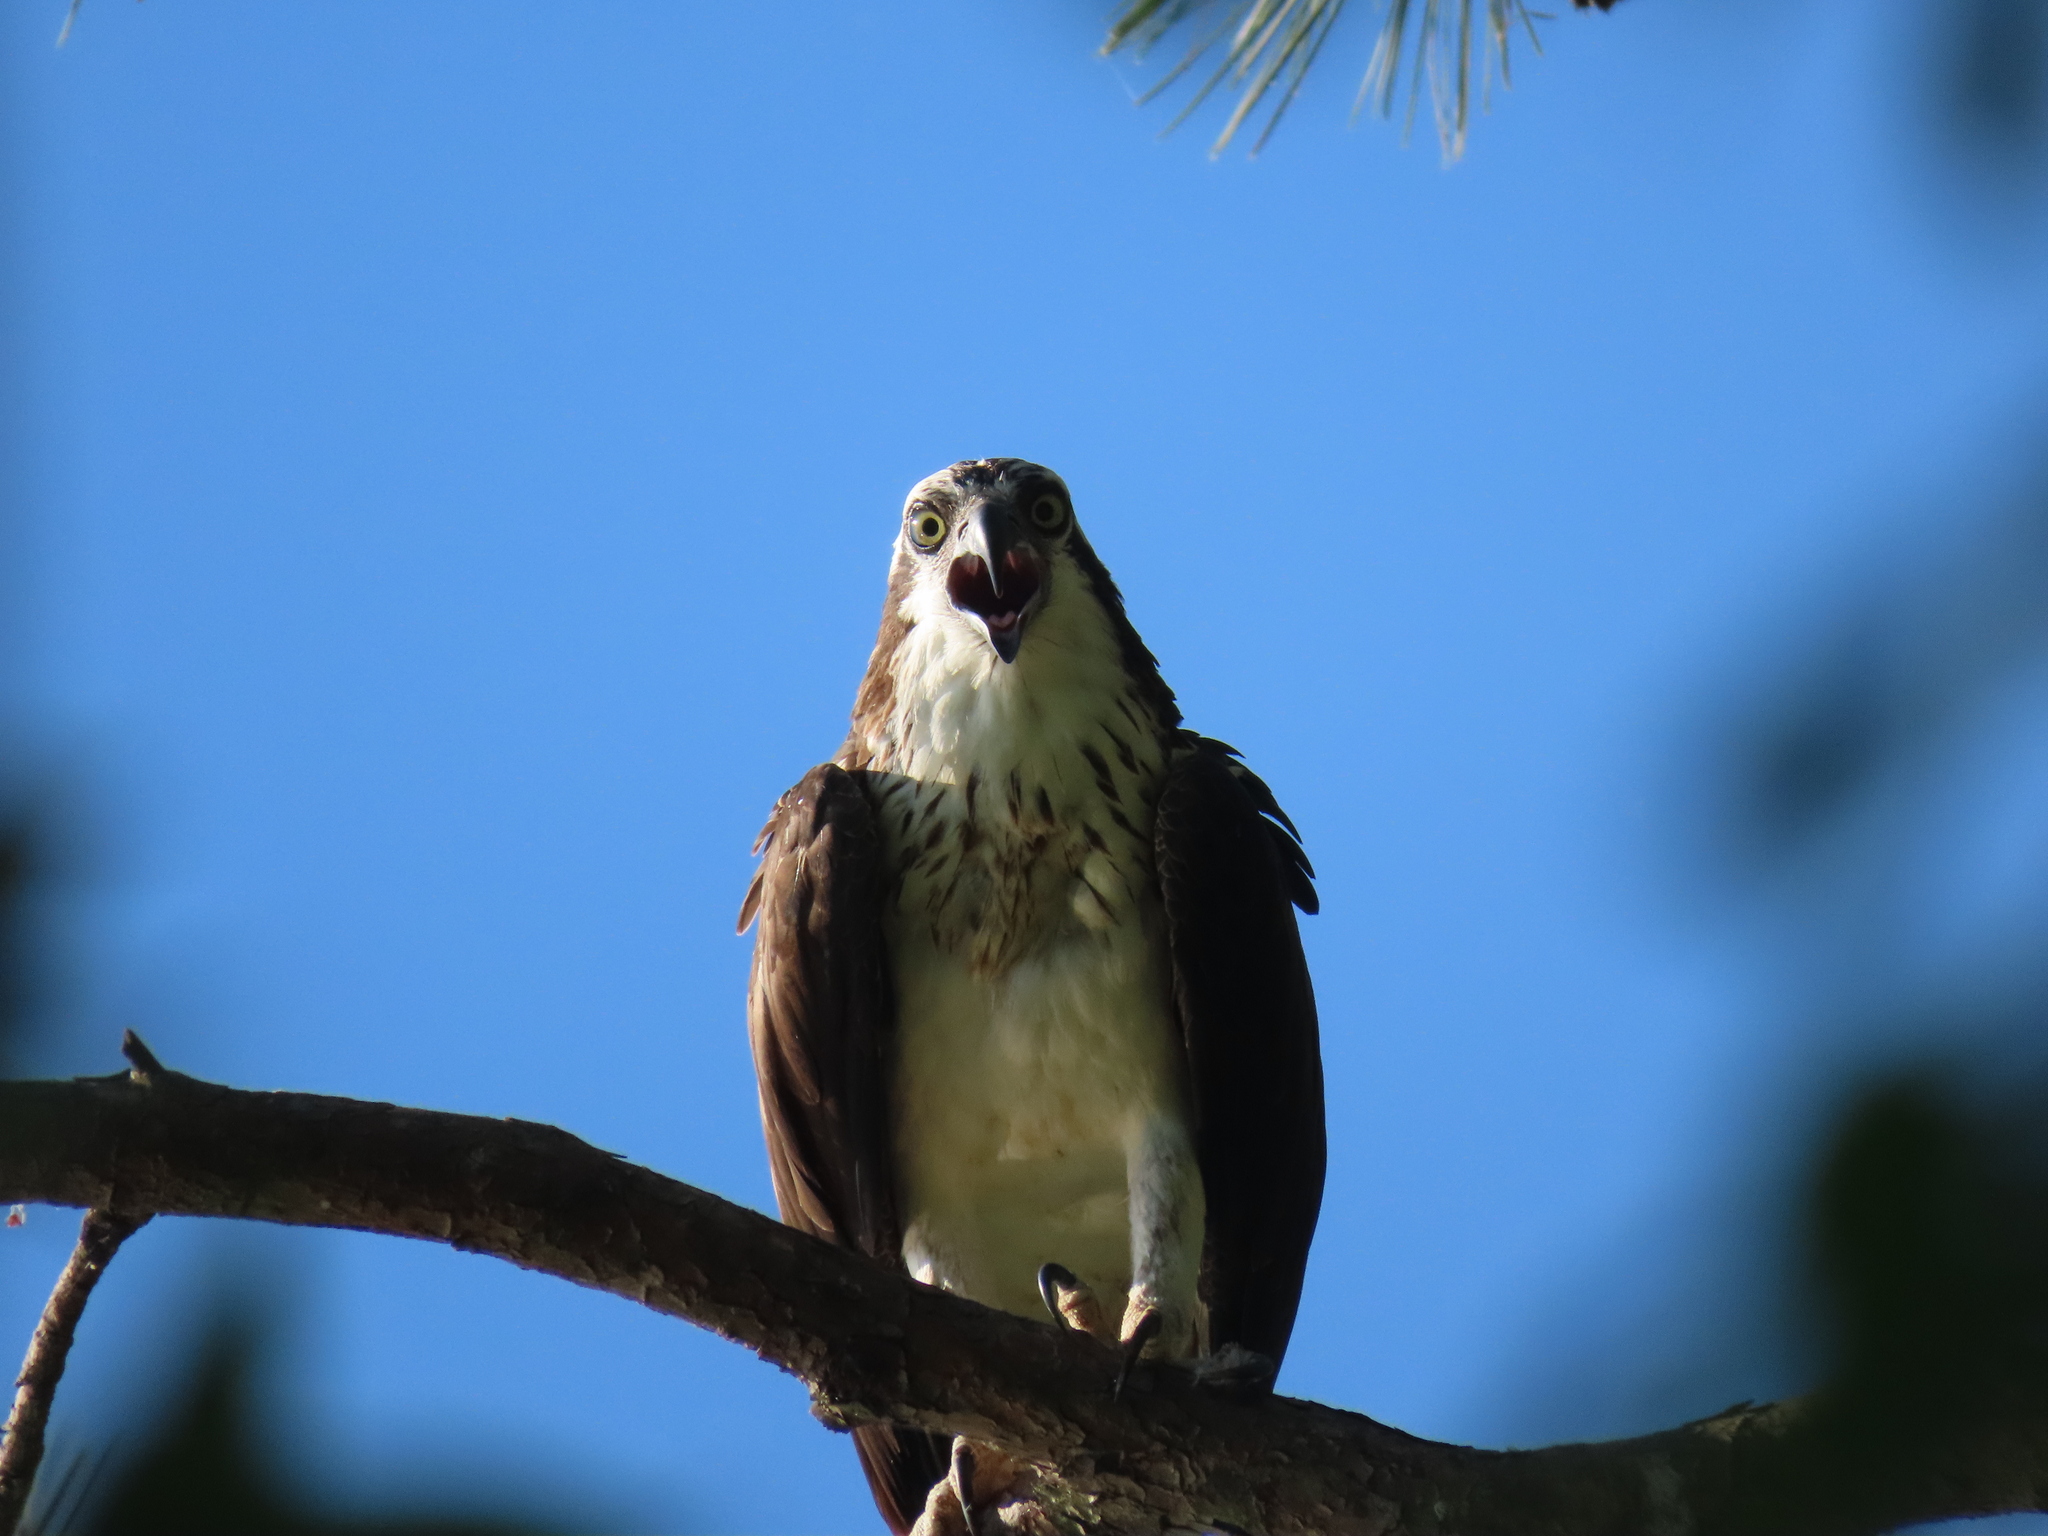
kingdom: Animalia
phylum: Chordata
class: Aves
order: Accipitriformes
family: Pandionidae
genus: Pandion
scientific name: Pandion haliaetus
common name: Osprey
